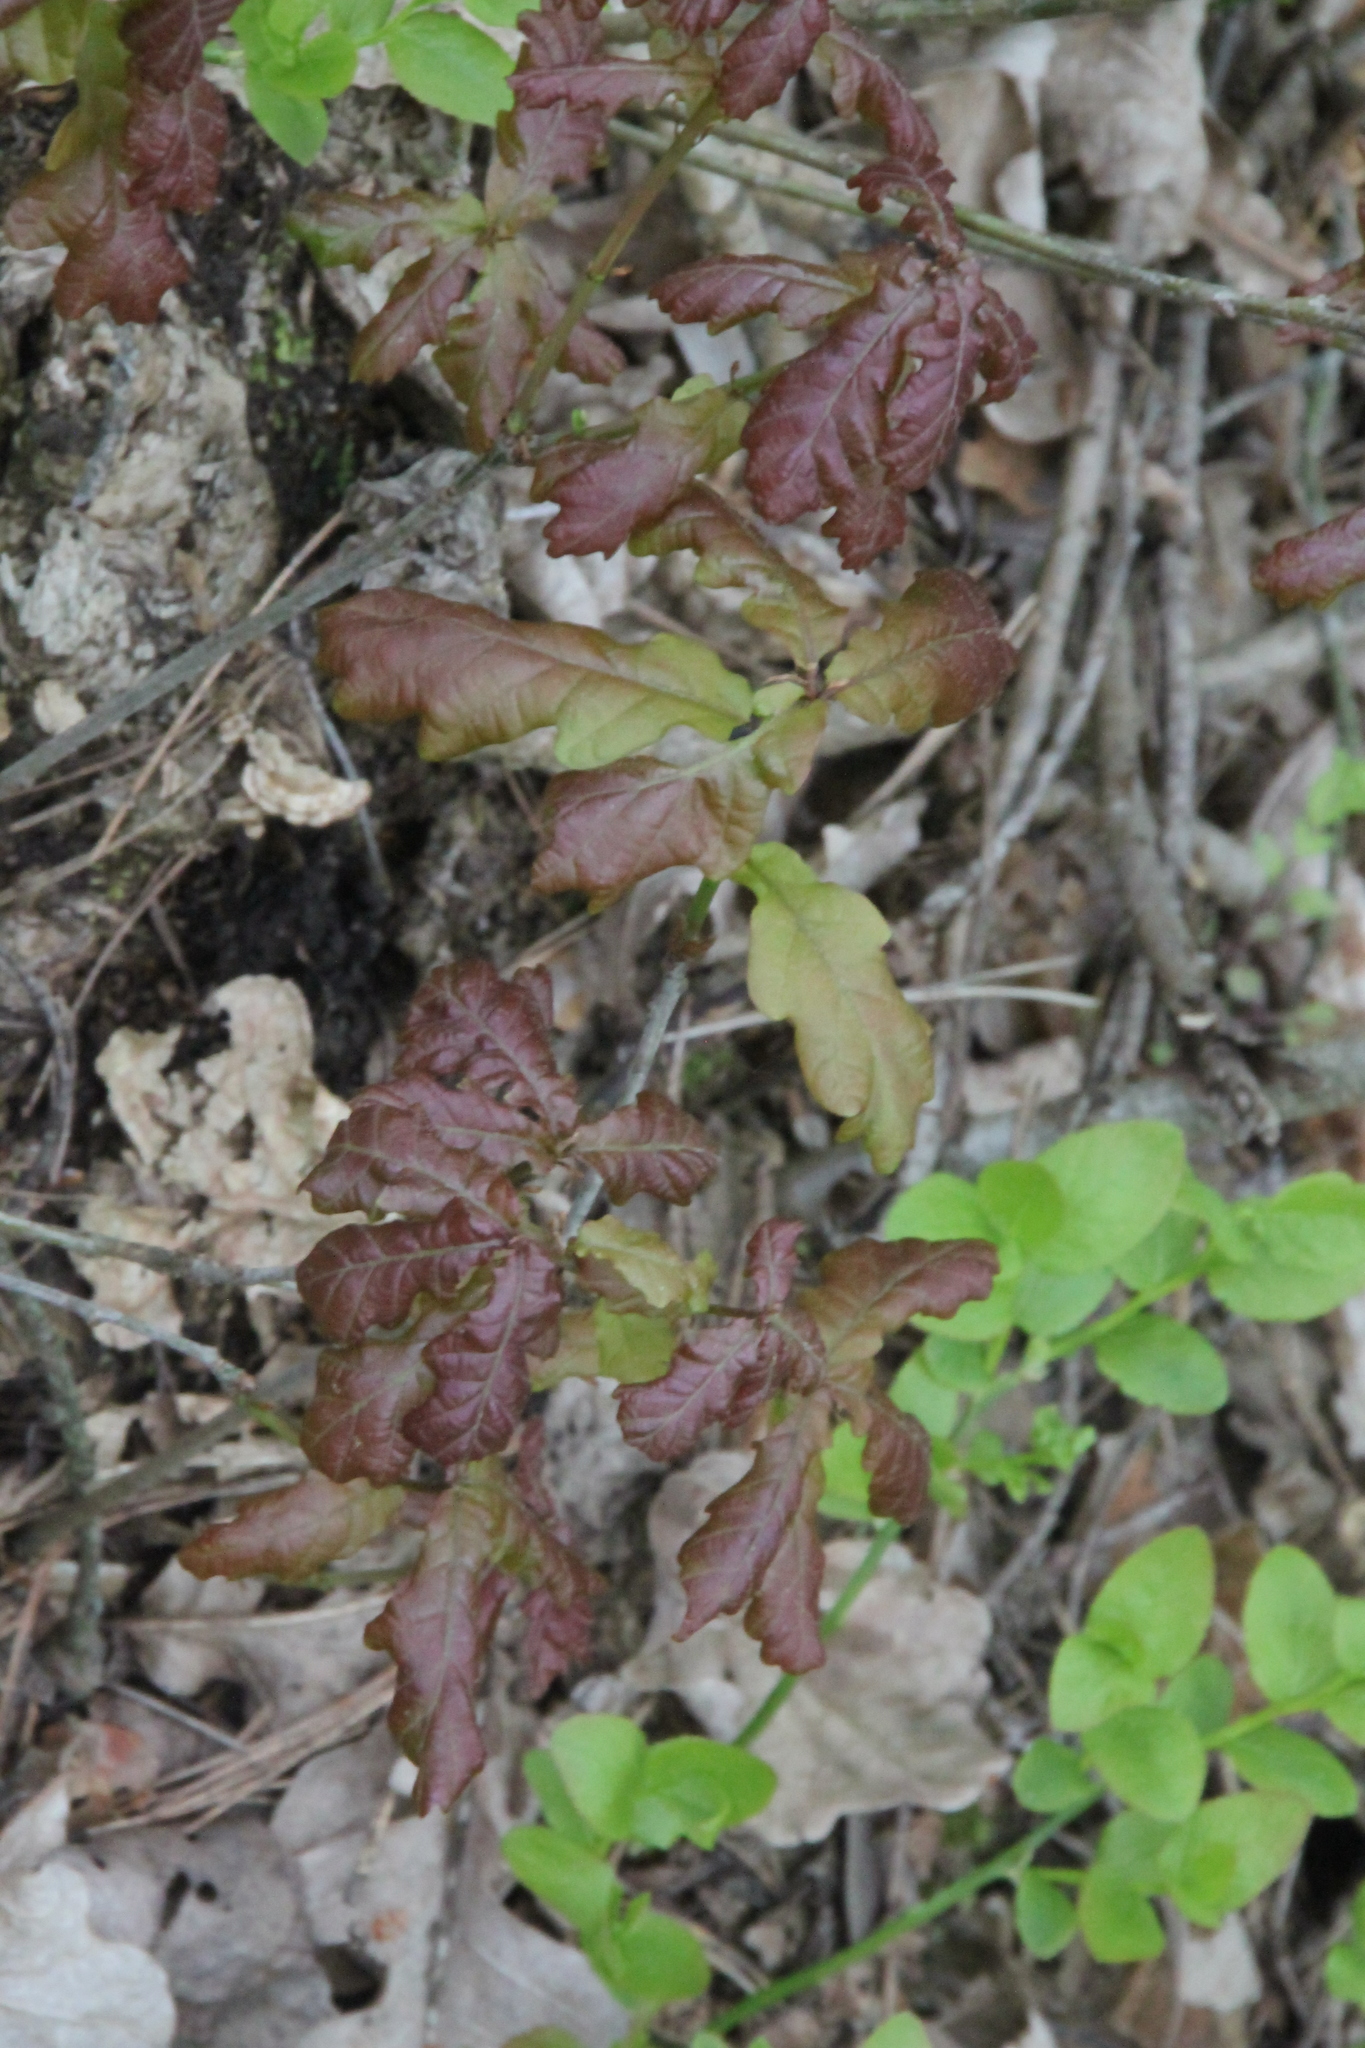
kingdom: Plantae
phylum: Tracheophyta
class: Magnoliopsida
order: Fagales
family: Fagaceae
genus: Quercus
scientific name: Quercus robur
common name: Pedunculate oak
